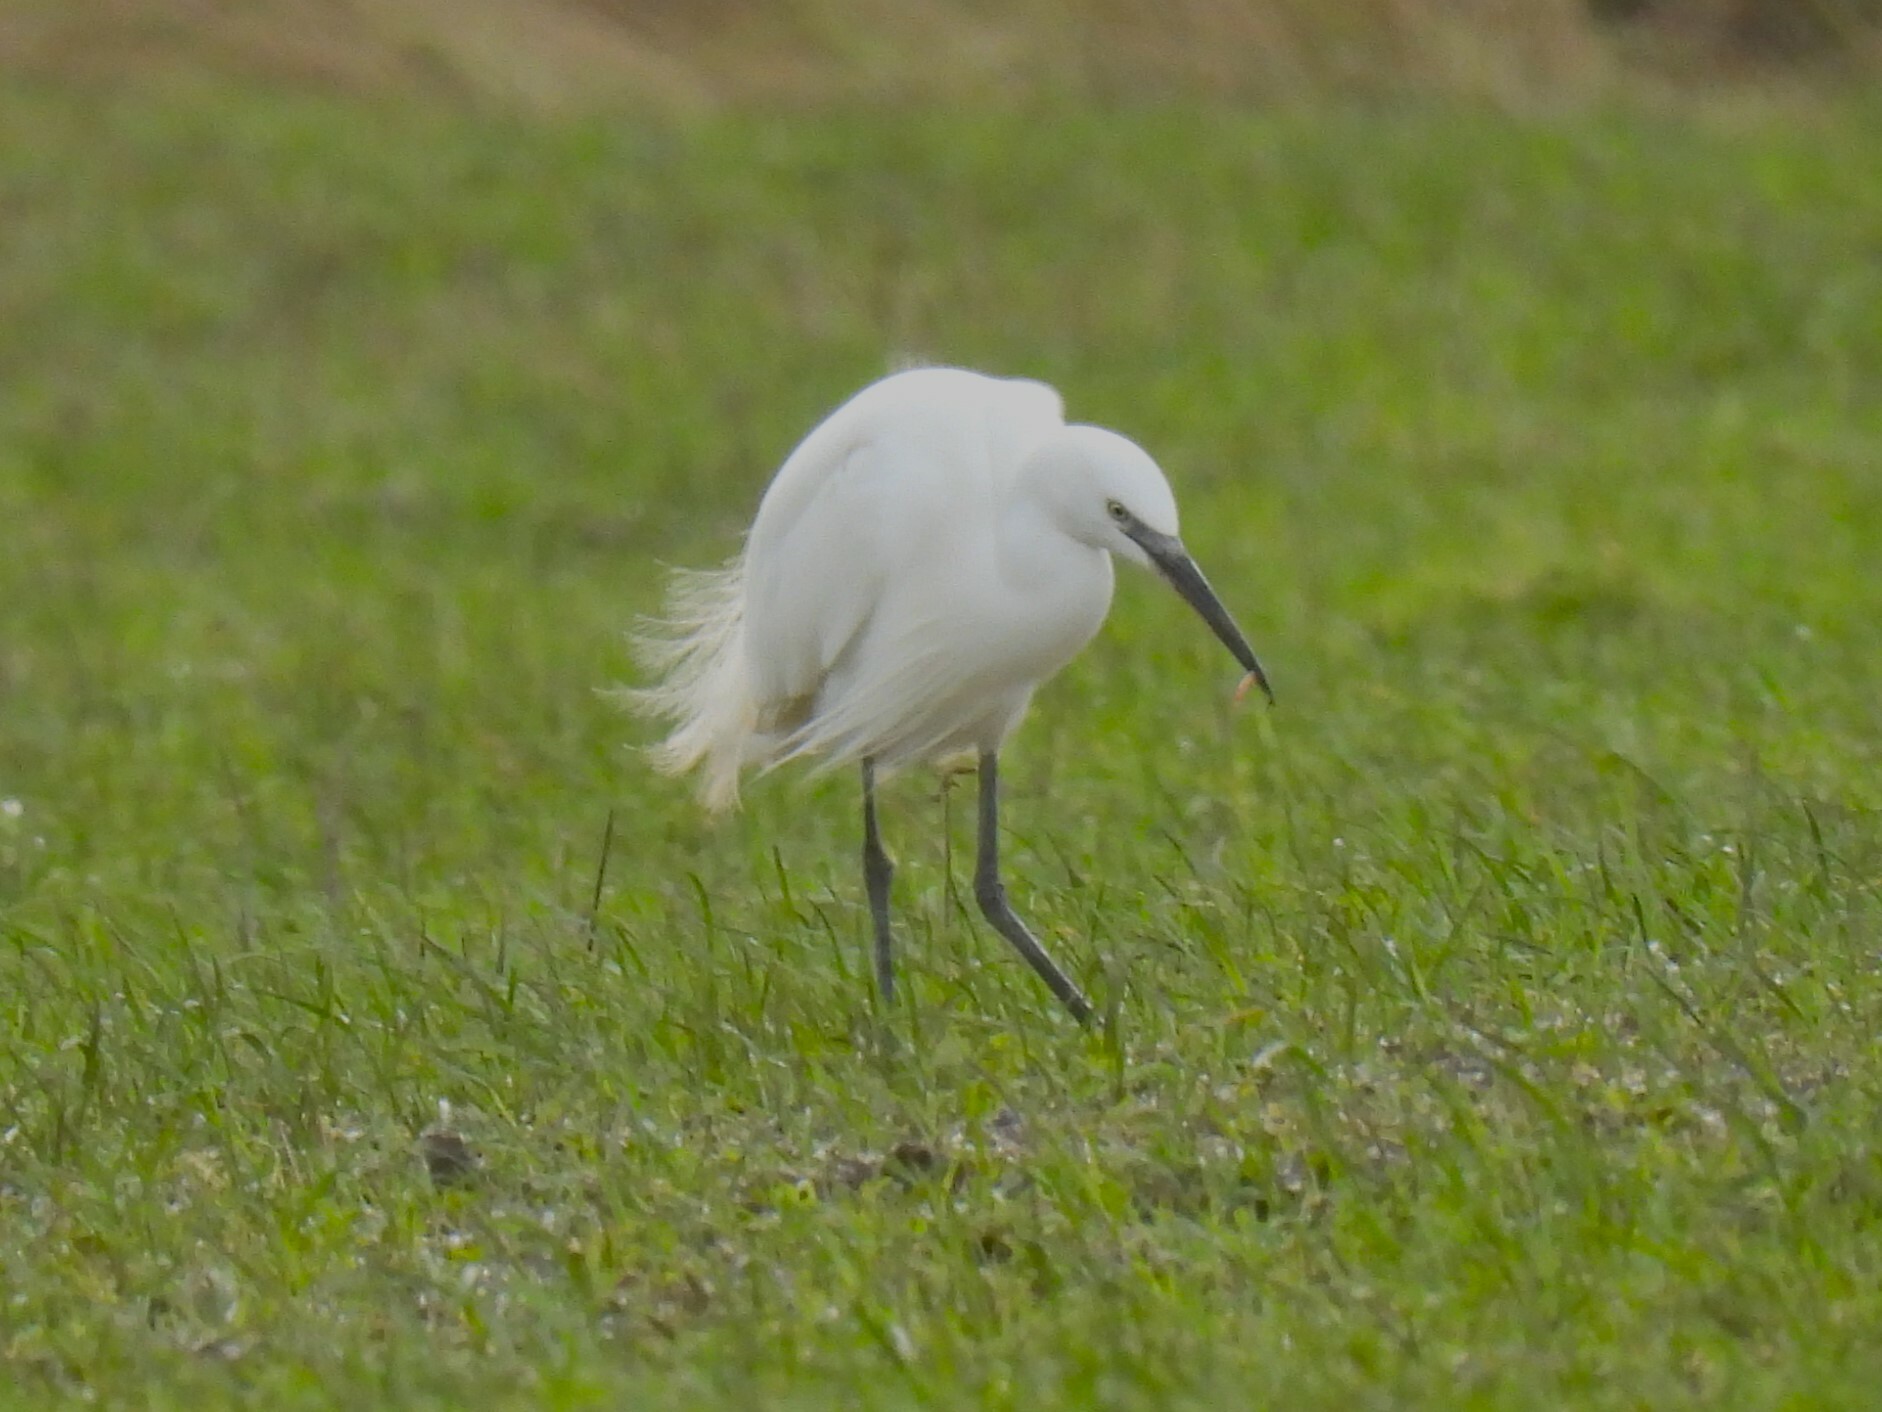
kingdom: Animalia
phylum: Chordata
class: Aves
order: Pelecaniformes
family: Ardeidae
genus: Egretta
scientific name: Egretta garzetta
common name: Little egret
